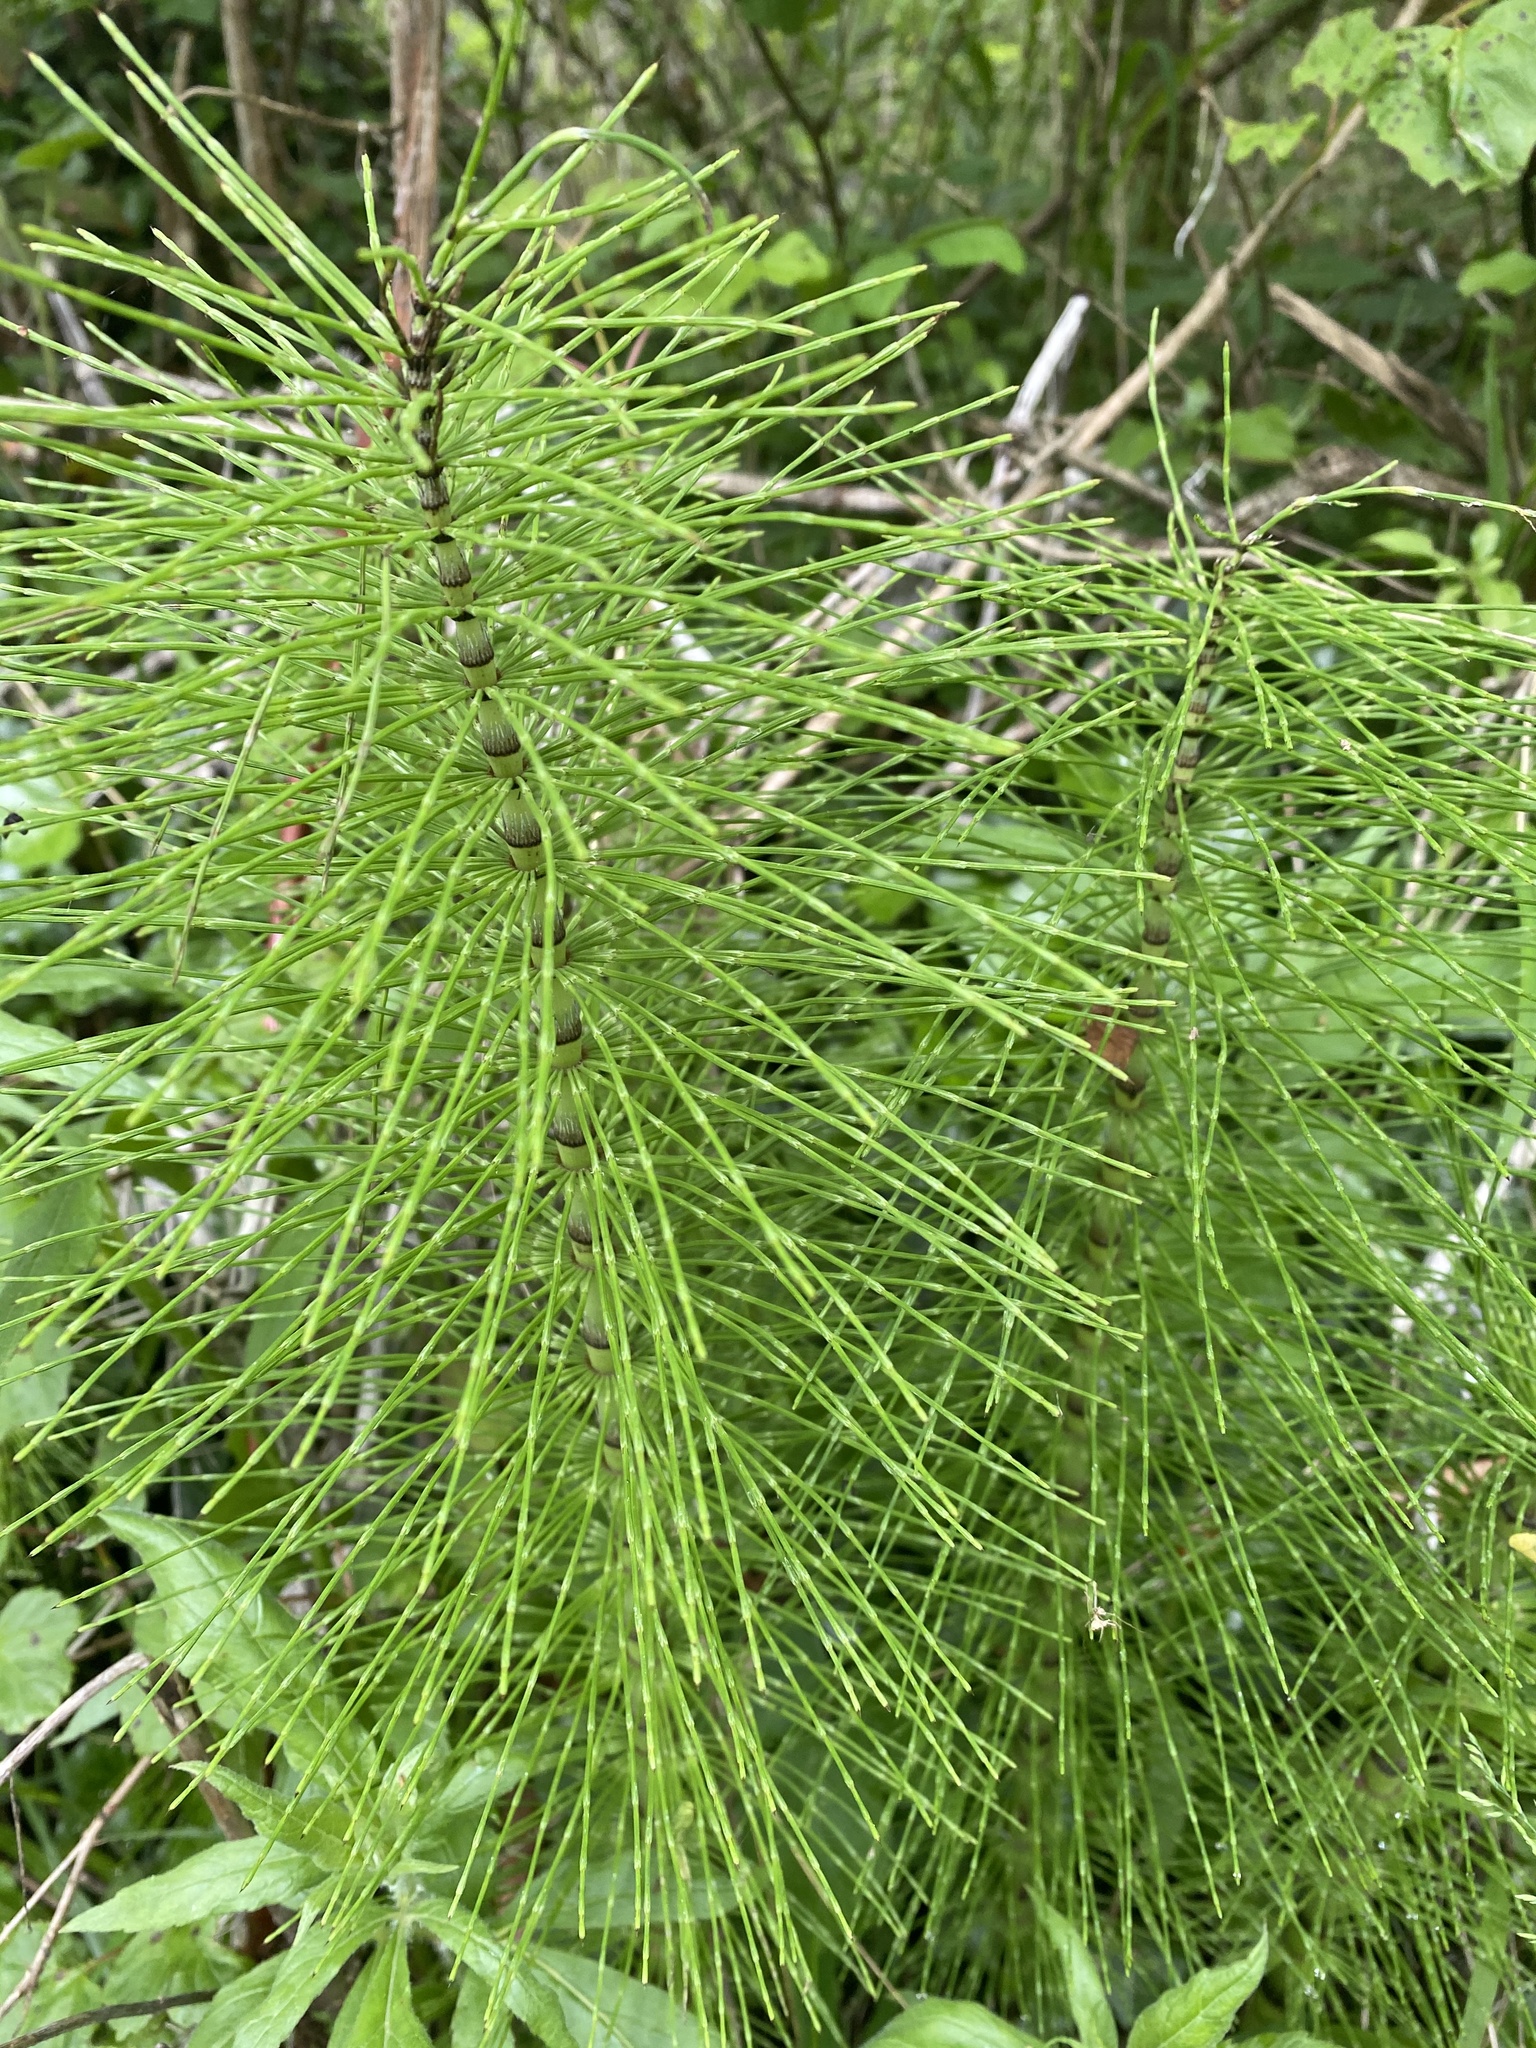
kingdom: Plantae
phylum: Tracheophyta
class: Polypodiopsida
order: Equisetales
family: Equisetaceae
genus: Equisetum
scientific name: Equisetum telmateia
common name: Great horsetail
